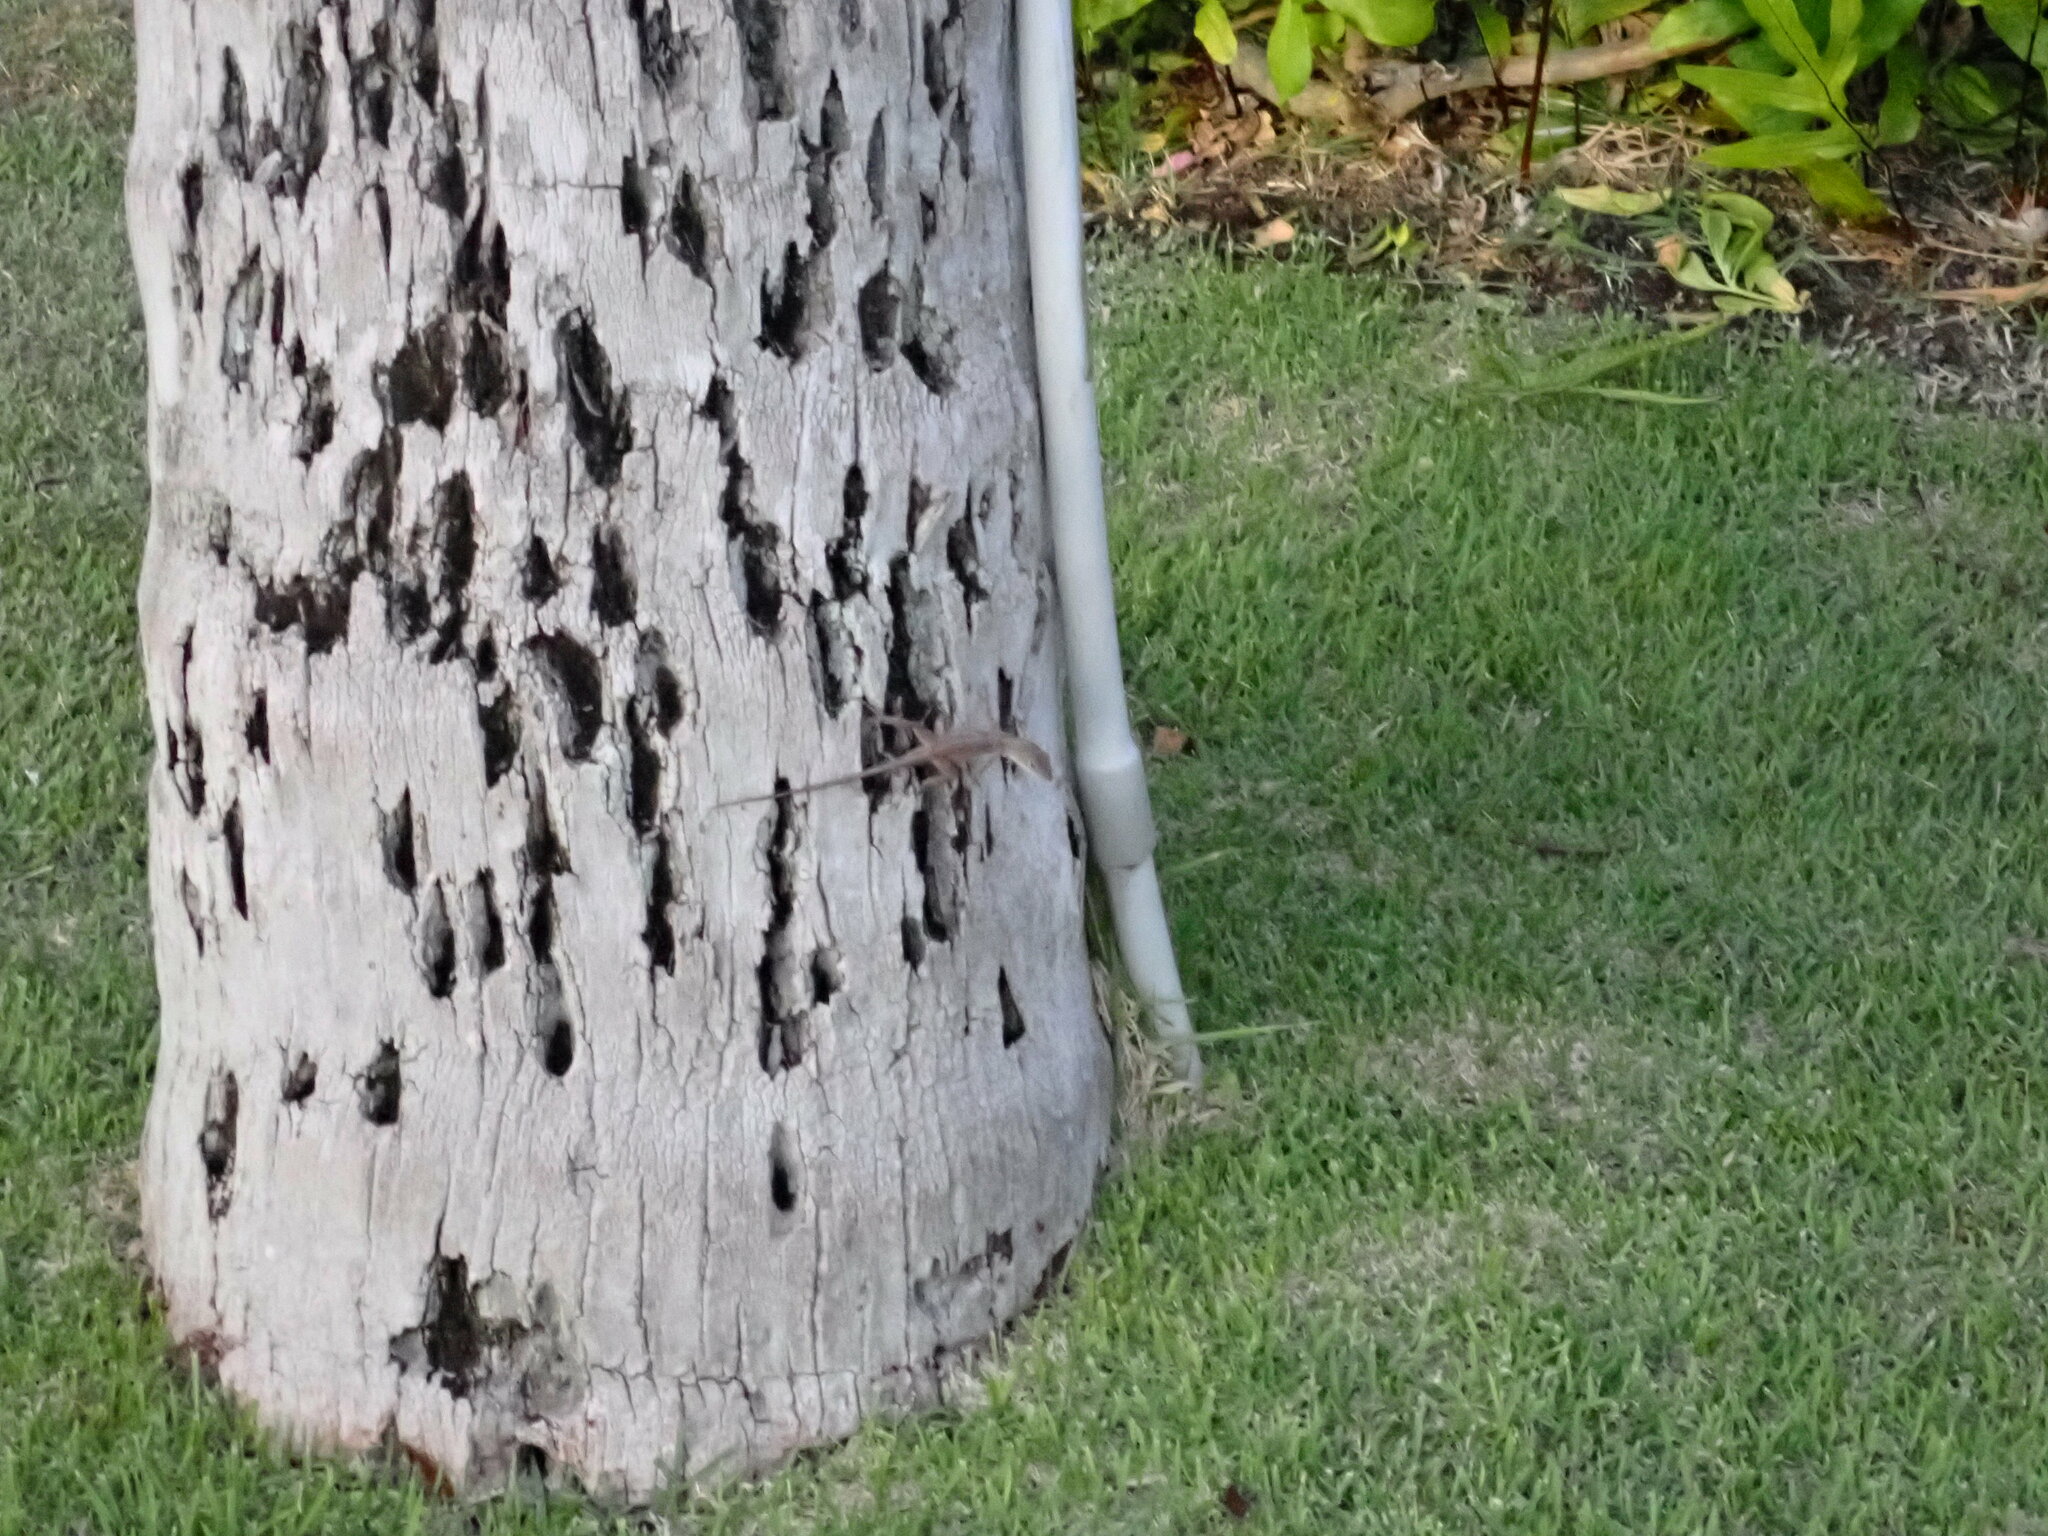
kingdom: Animalia
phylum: Chordata
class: Squamata
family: Dactyloidae
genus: Anolis
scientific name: Anolis sagrei
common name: Brown anole
